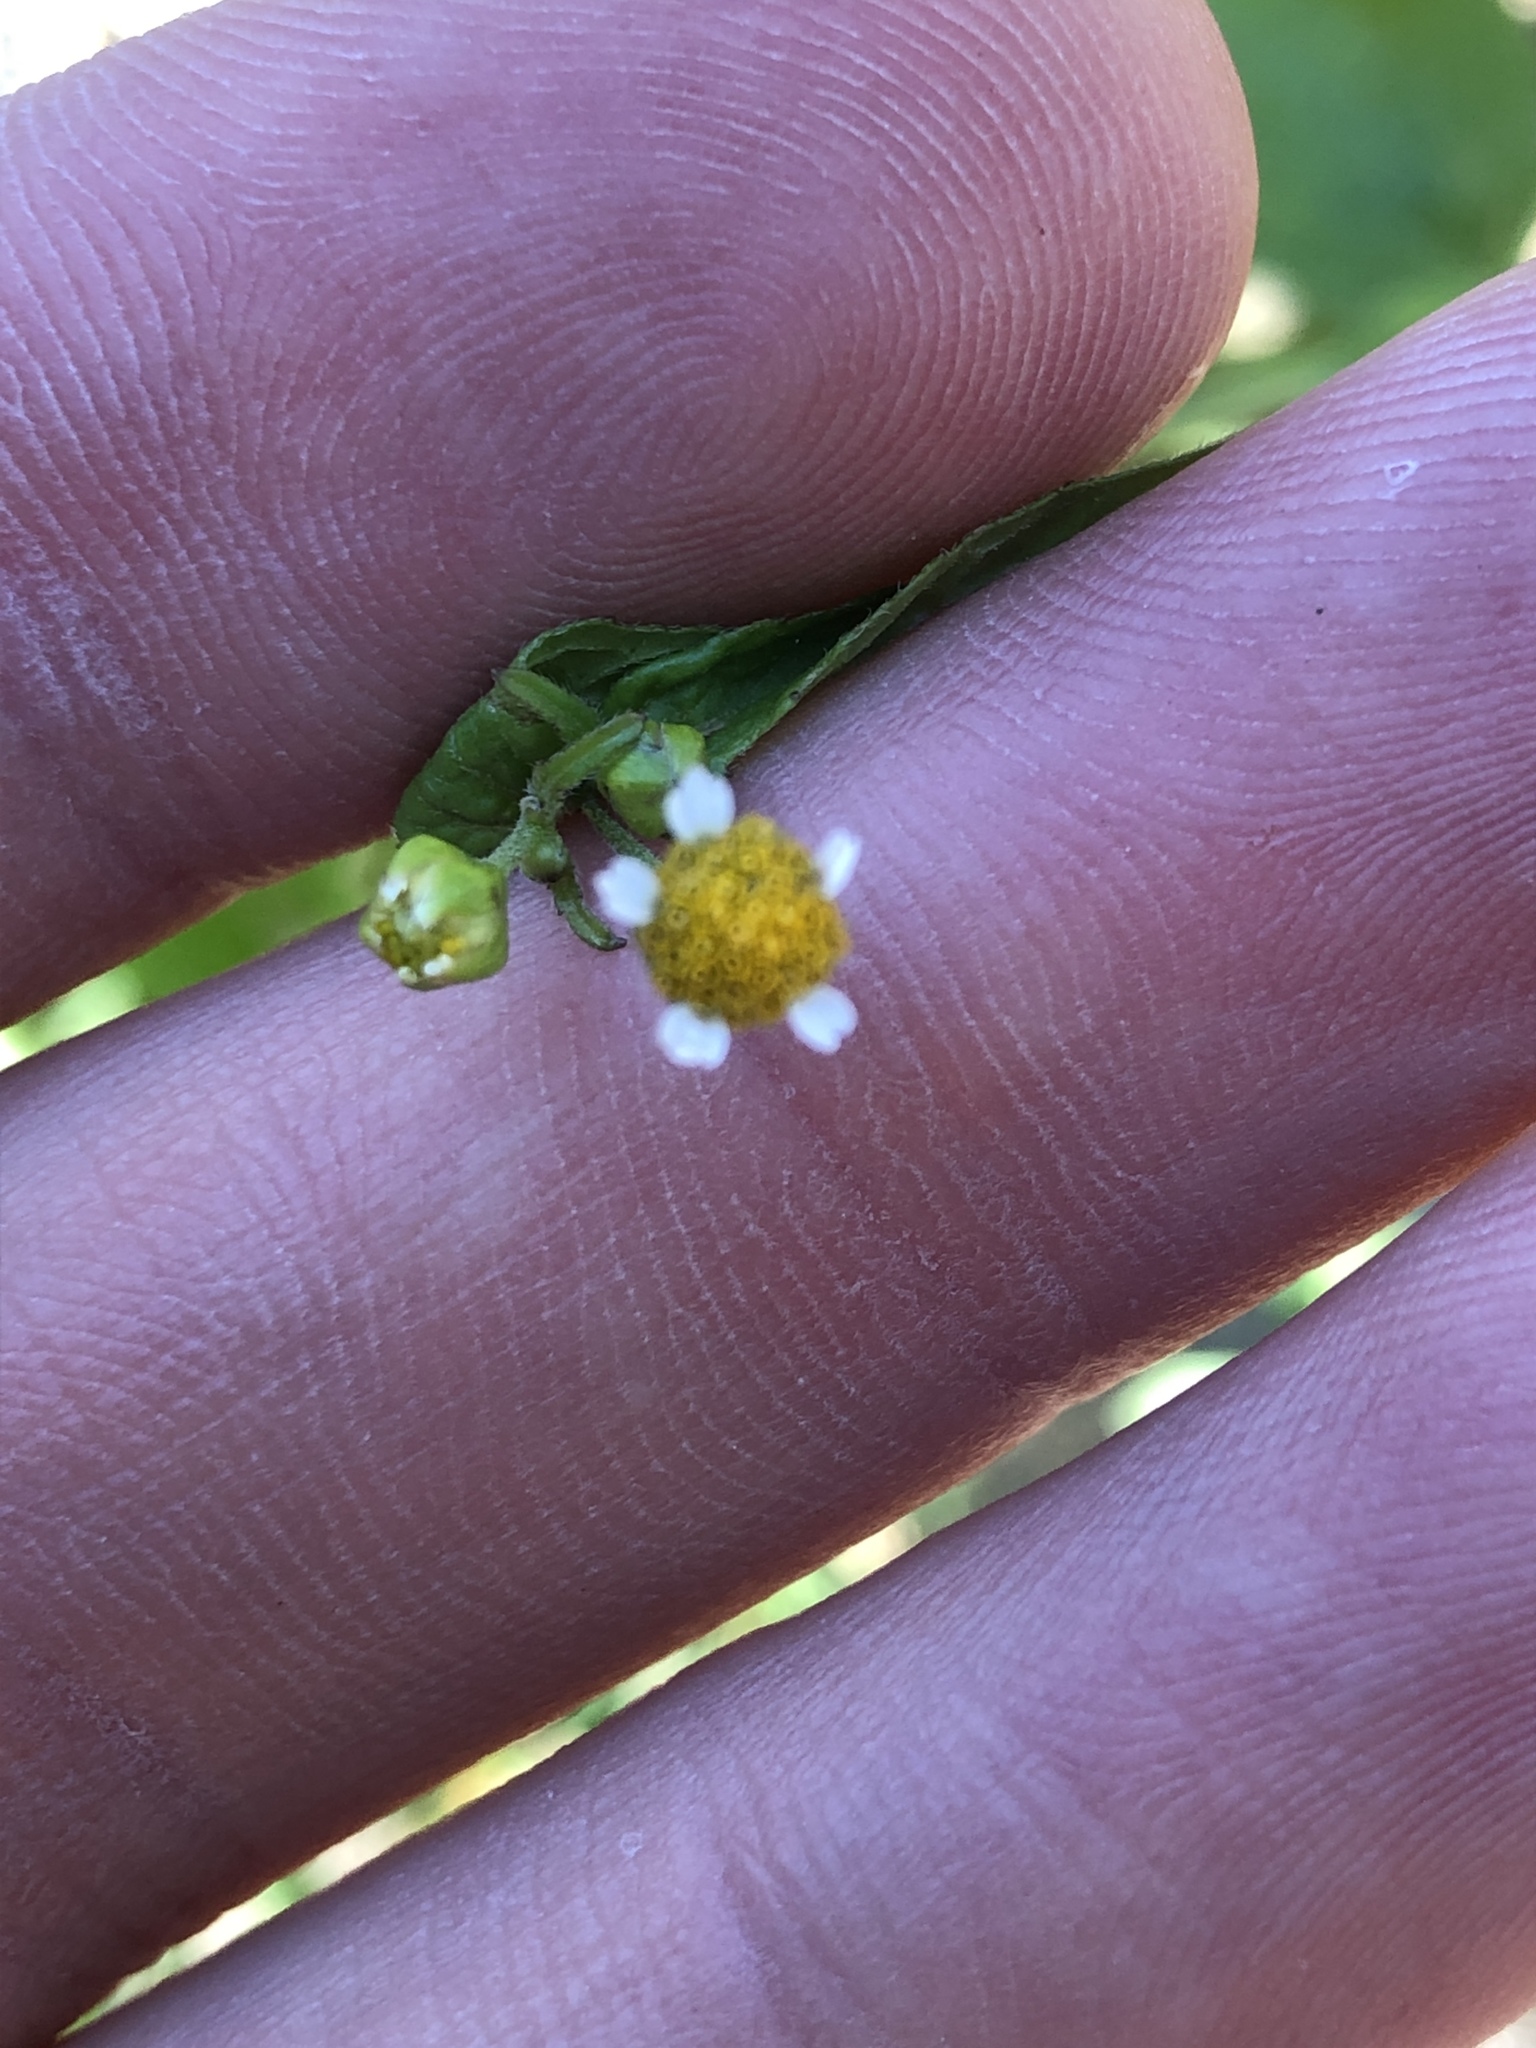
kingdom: Plantae
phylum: Tracheophyta
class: Magnoliopsida
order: Asterales
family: Asteraceae
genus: Galinsoga
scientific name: Galinsoga parviflora
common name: Gallant soldier
